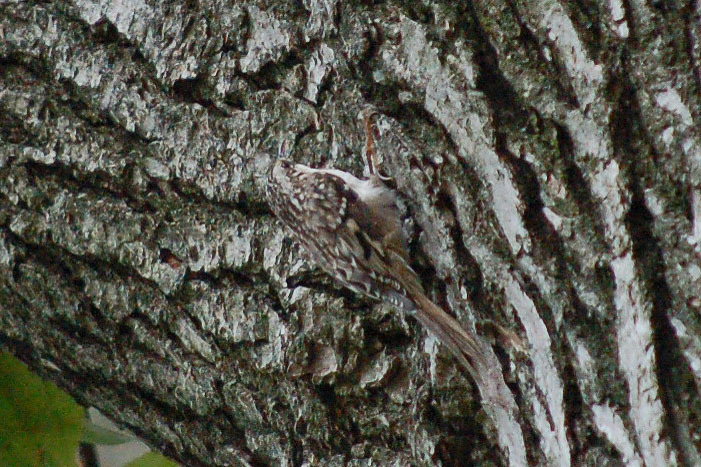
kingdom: Animalia
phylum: Chordata
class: Aves
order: Passeriformes
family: Certhiidae
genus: Certhia
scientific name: Certhia americana
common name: Brown creeper
